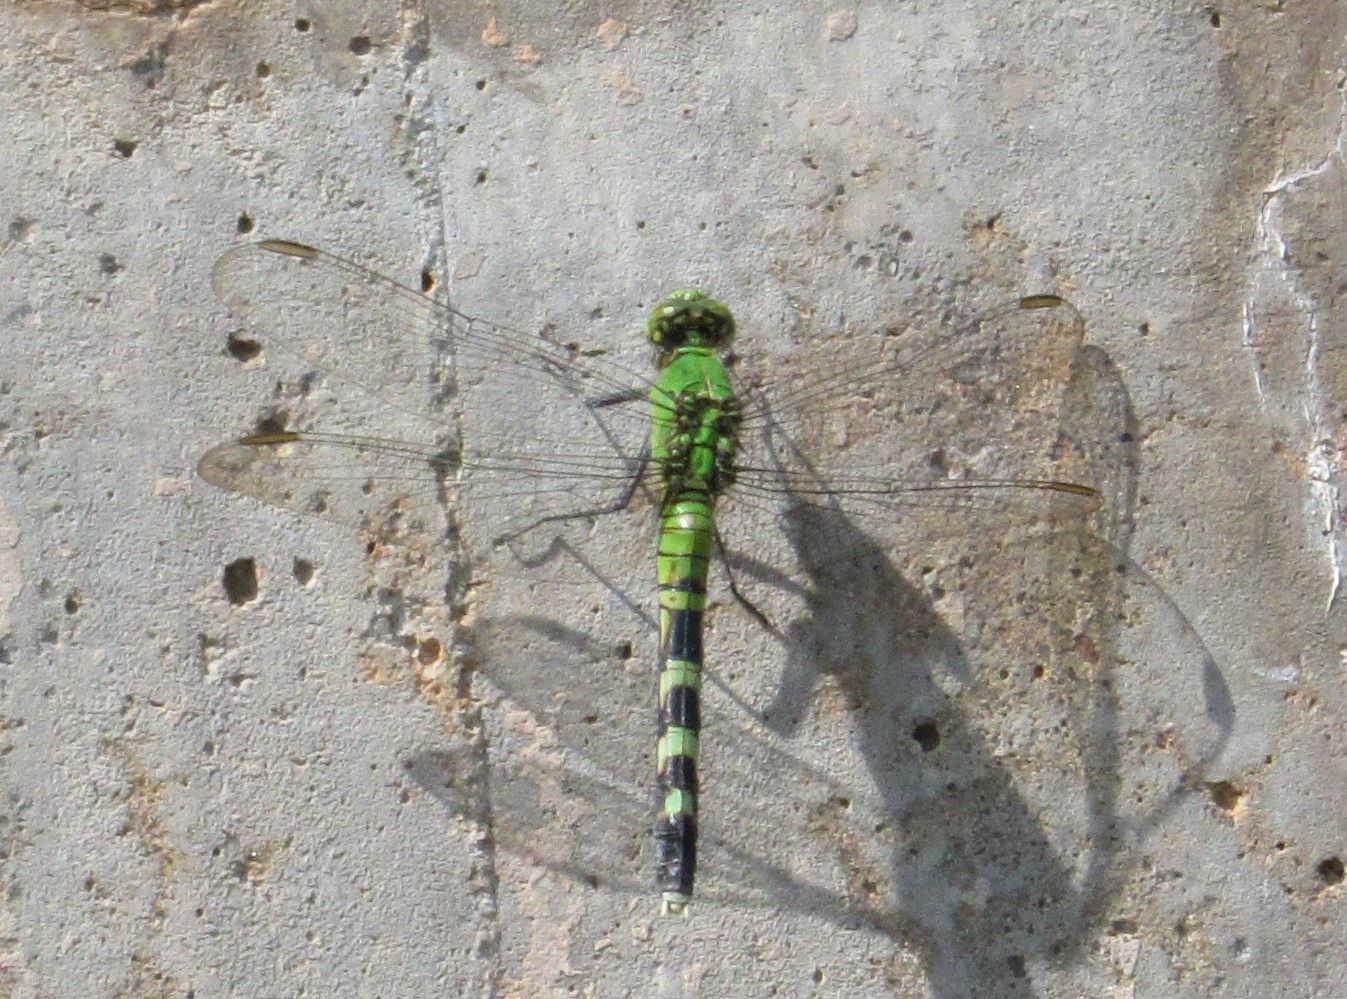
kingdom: Animalia
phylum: Arthropoda
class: Insecta
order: Odonata
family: Libellulidae
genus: Erythemis
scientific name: Erythemis simplicicollis
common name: Eastern pondhawk
